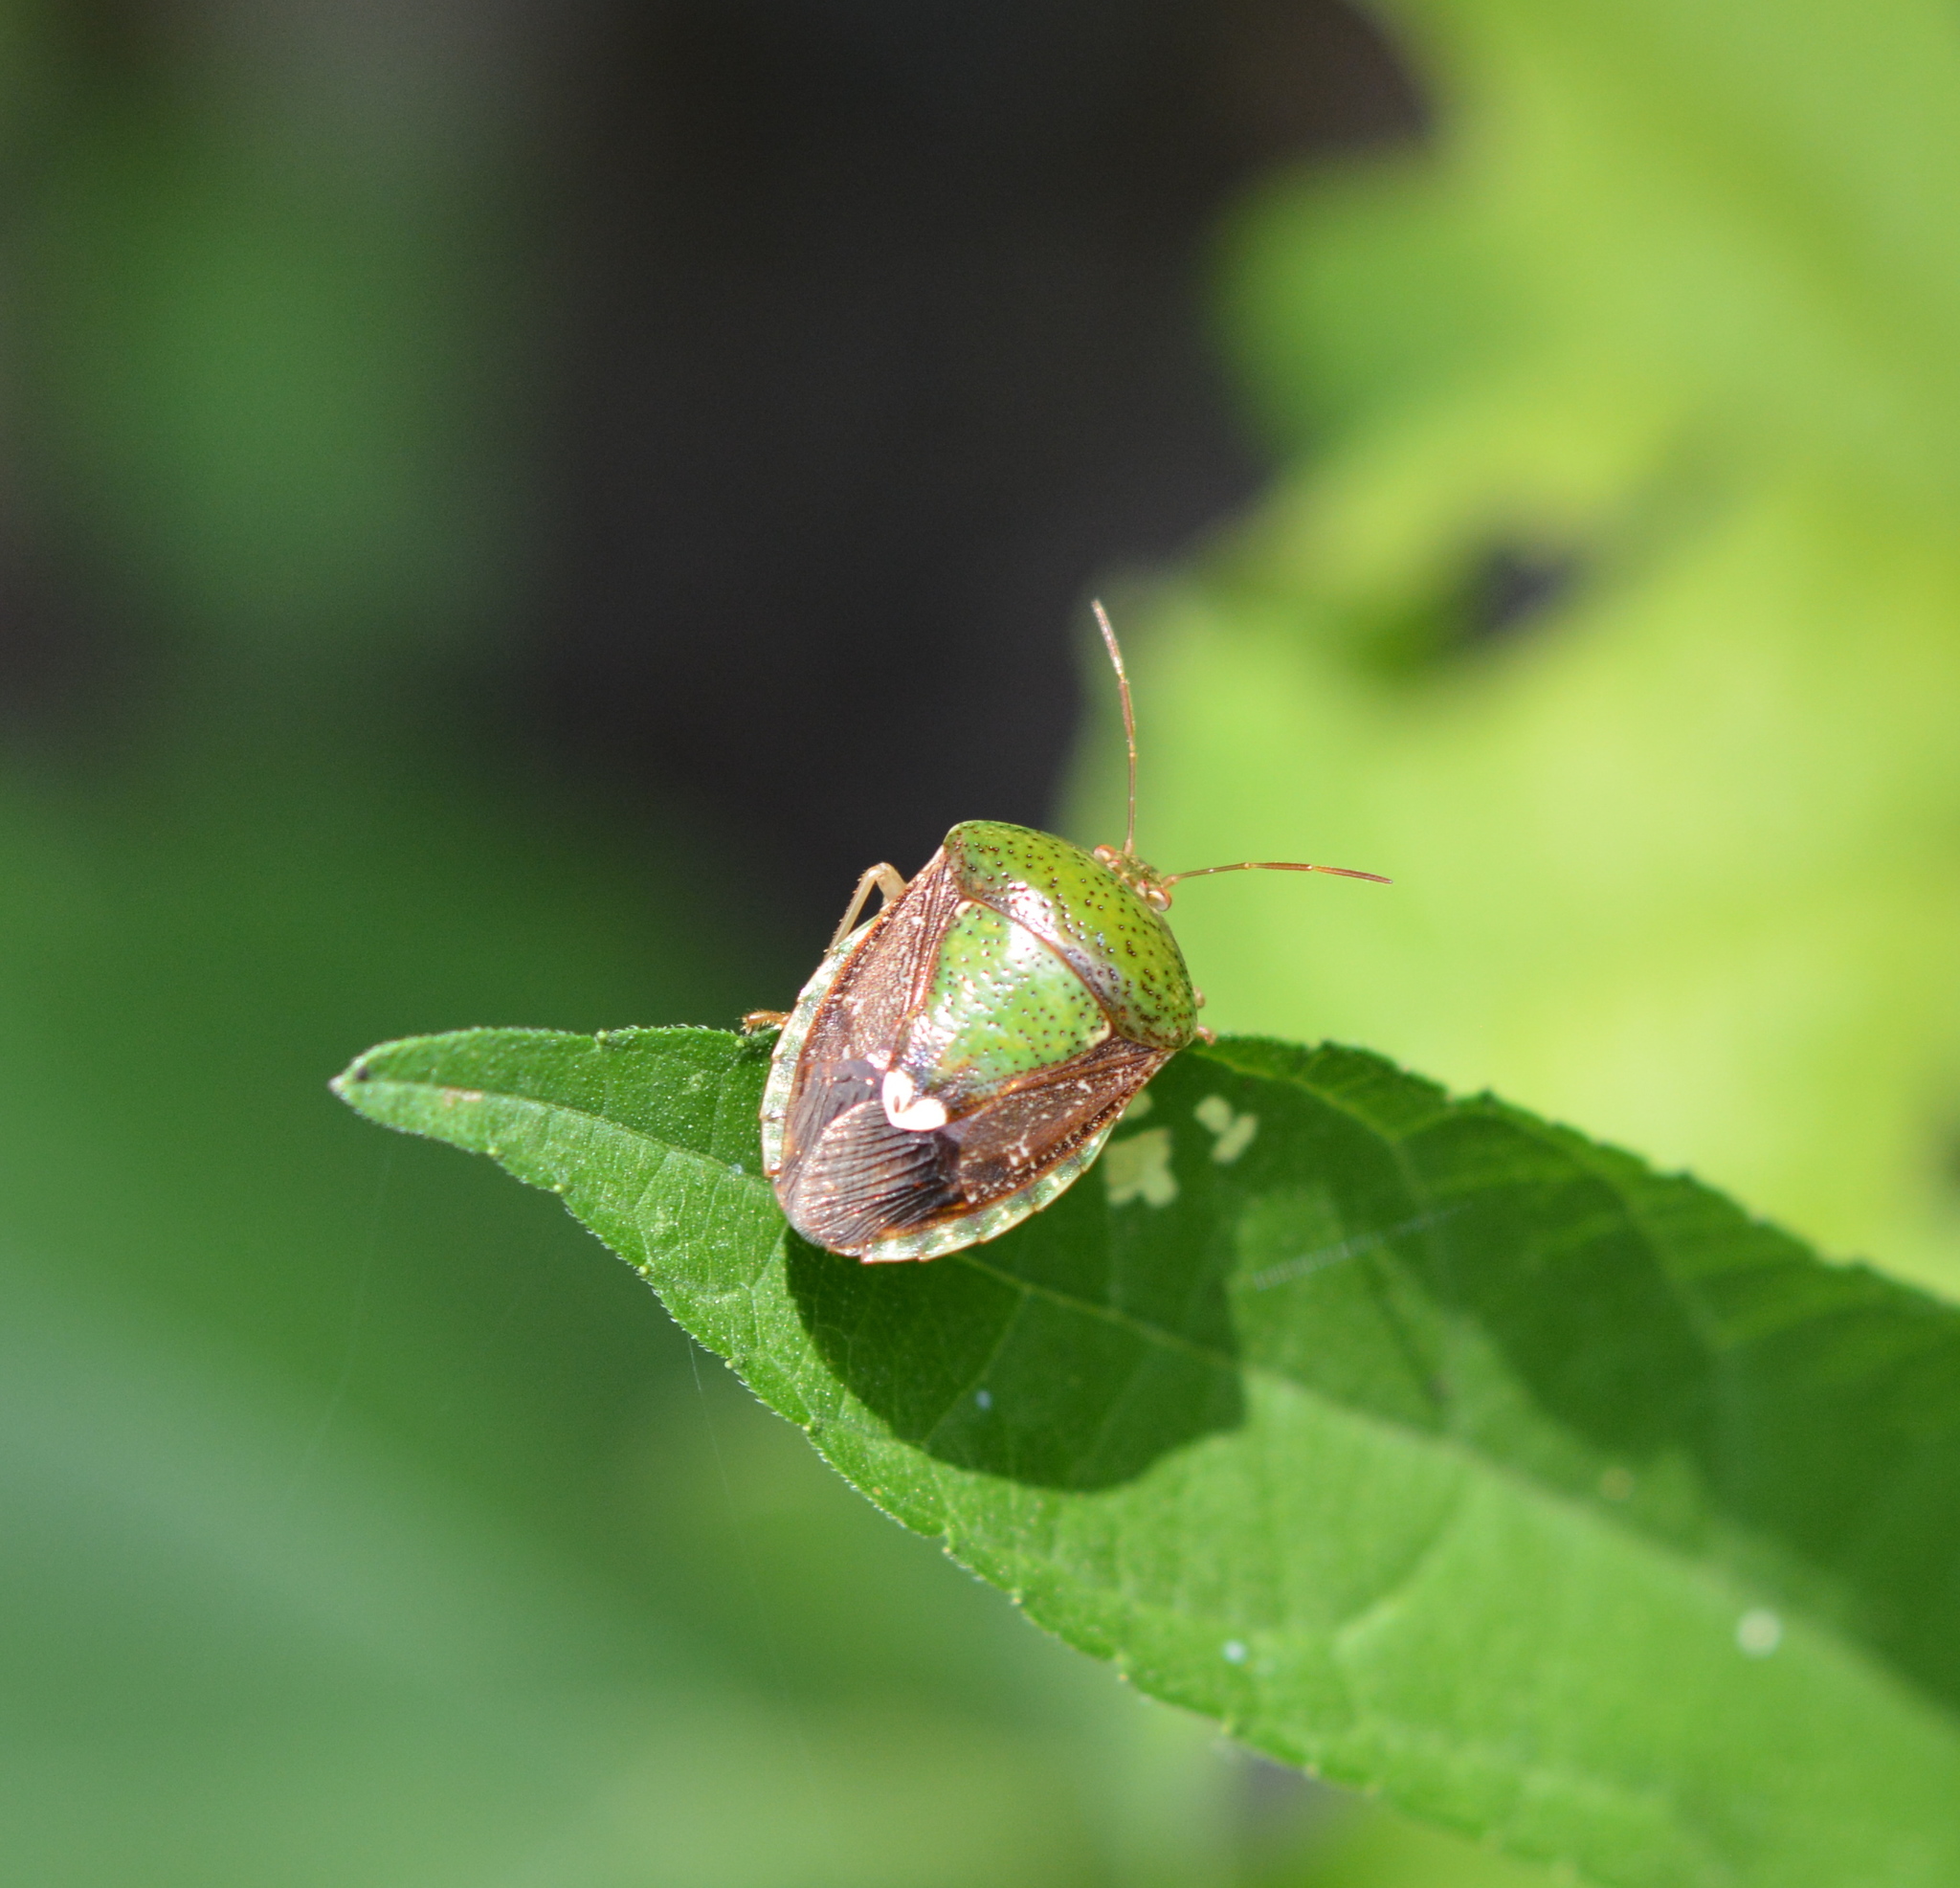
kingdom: Animalia
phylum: Arthropoda
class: Insecta
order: Hemiptera
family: Pentatomidae
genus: Edessa
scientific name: Edessa bifida
